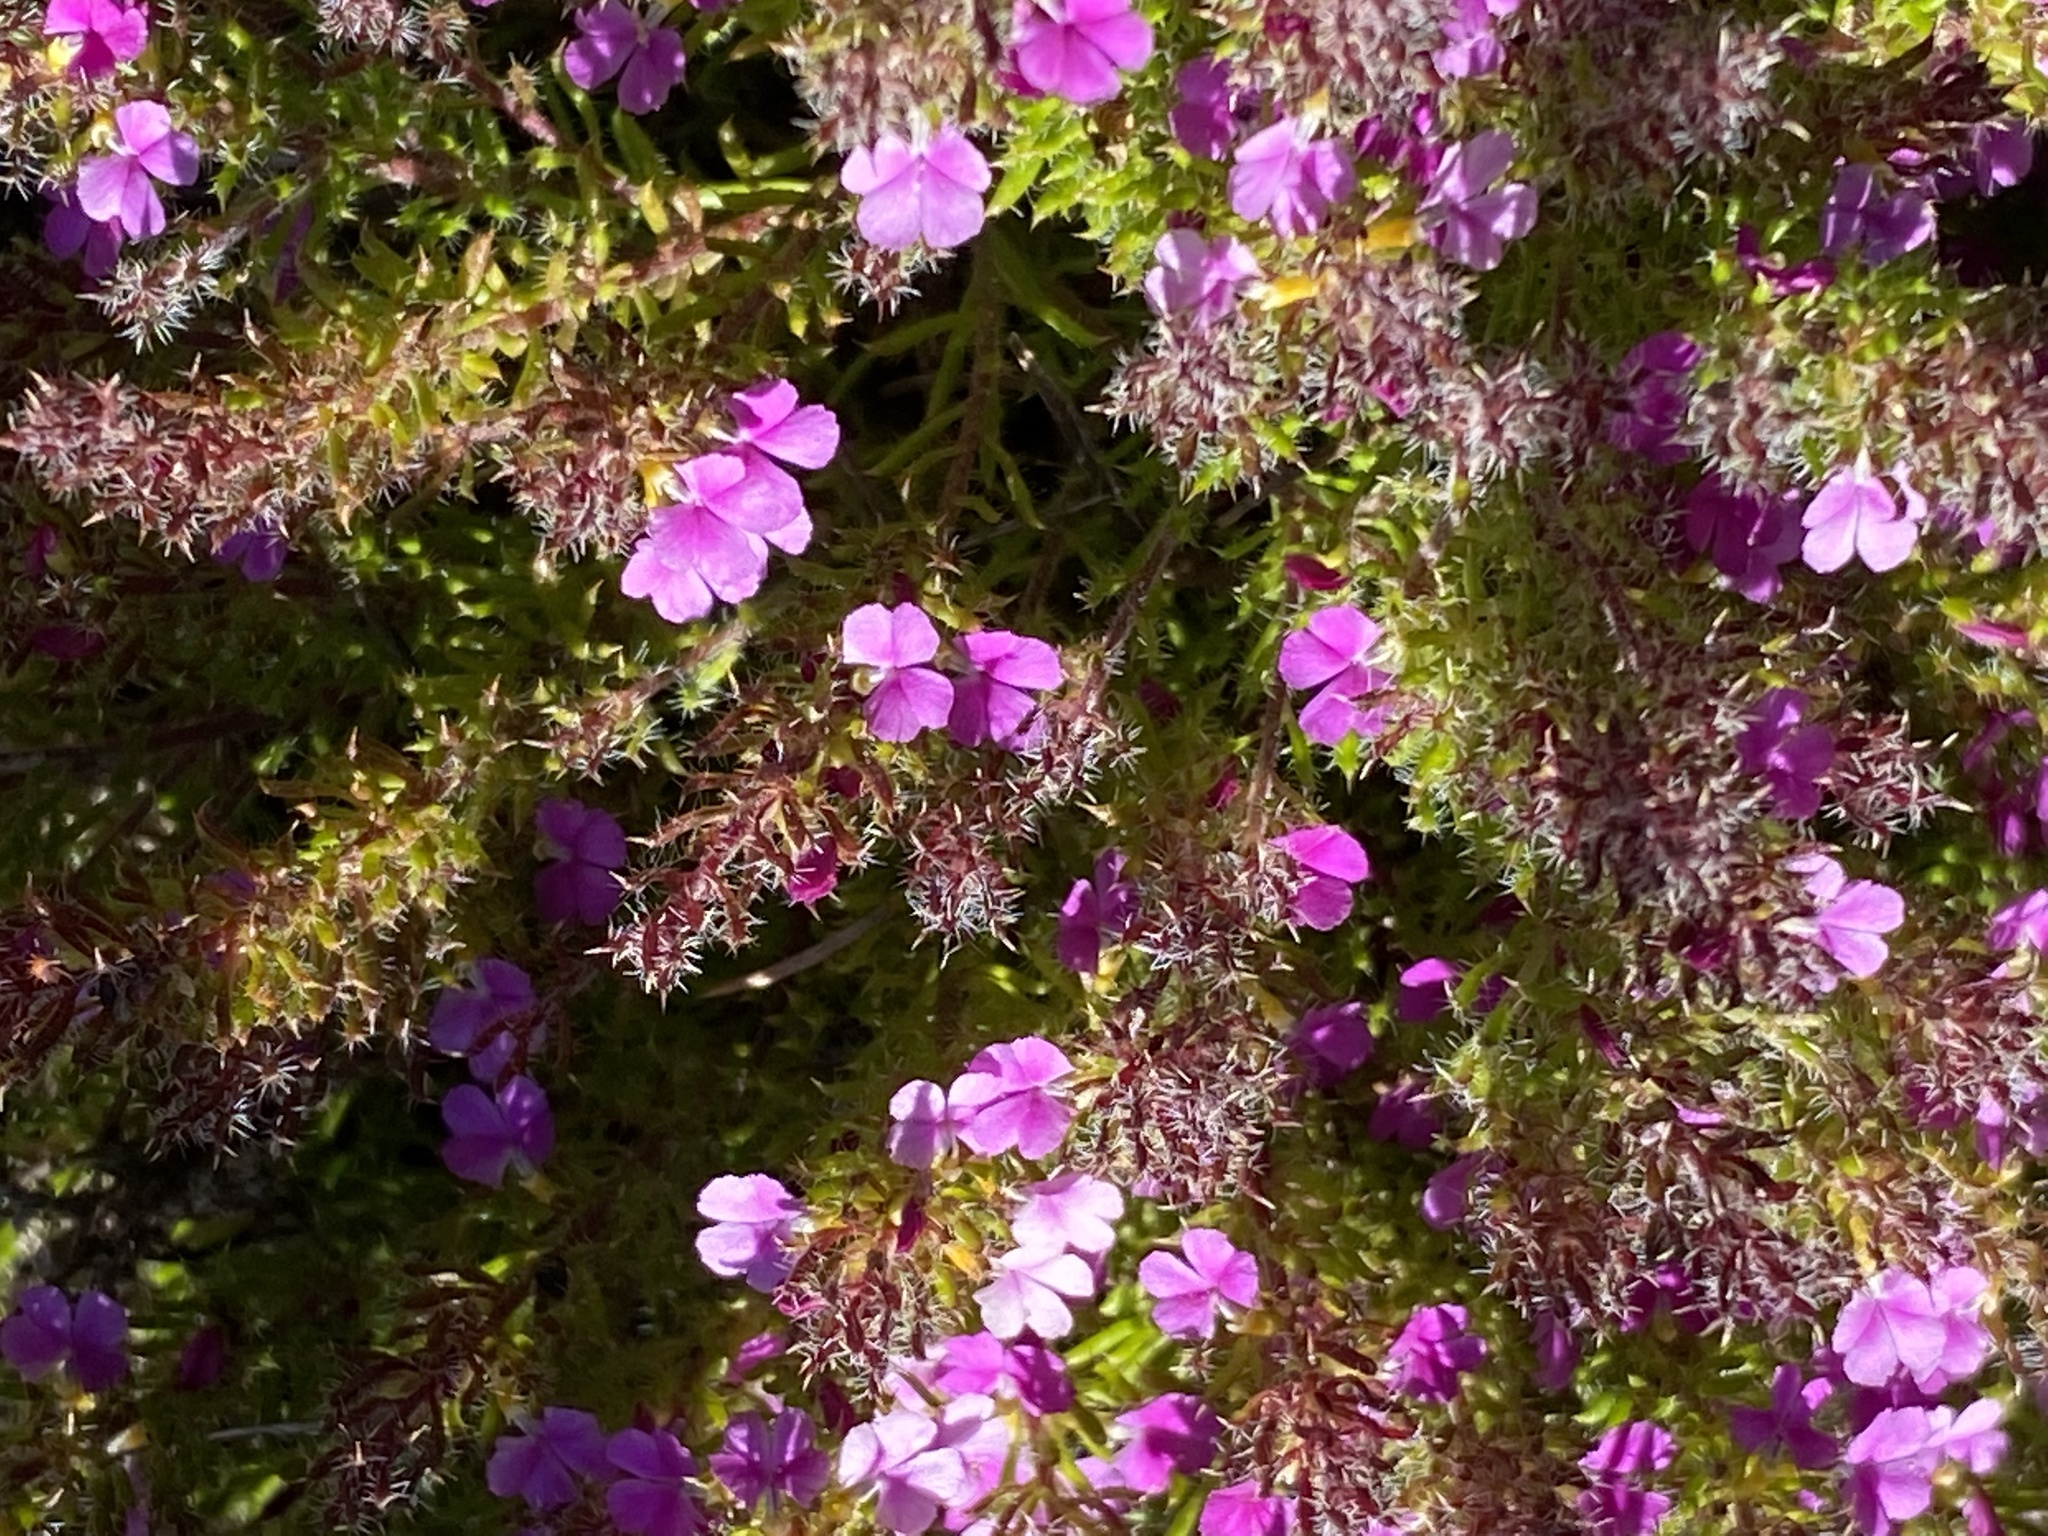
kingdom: Plantae
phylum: Tracheophyta
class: Magnoliopsida
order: Fabales
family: Polygalaceae
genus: Muraltia
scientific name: Muraltia ciliaris
